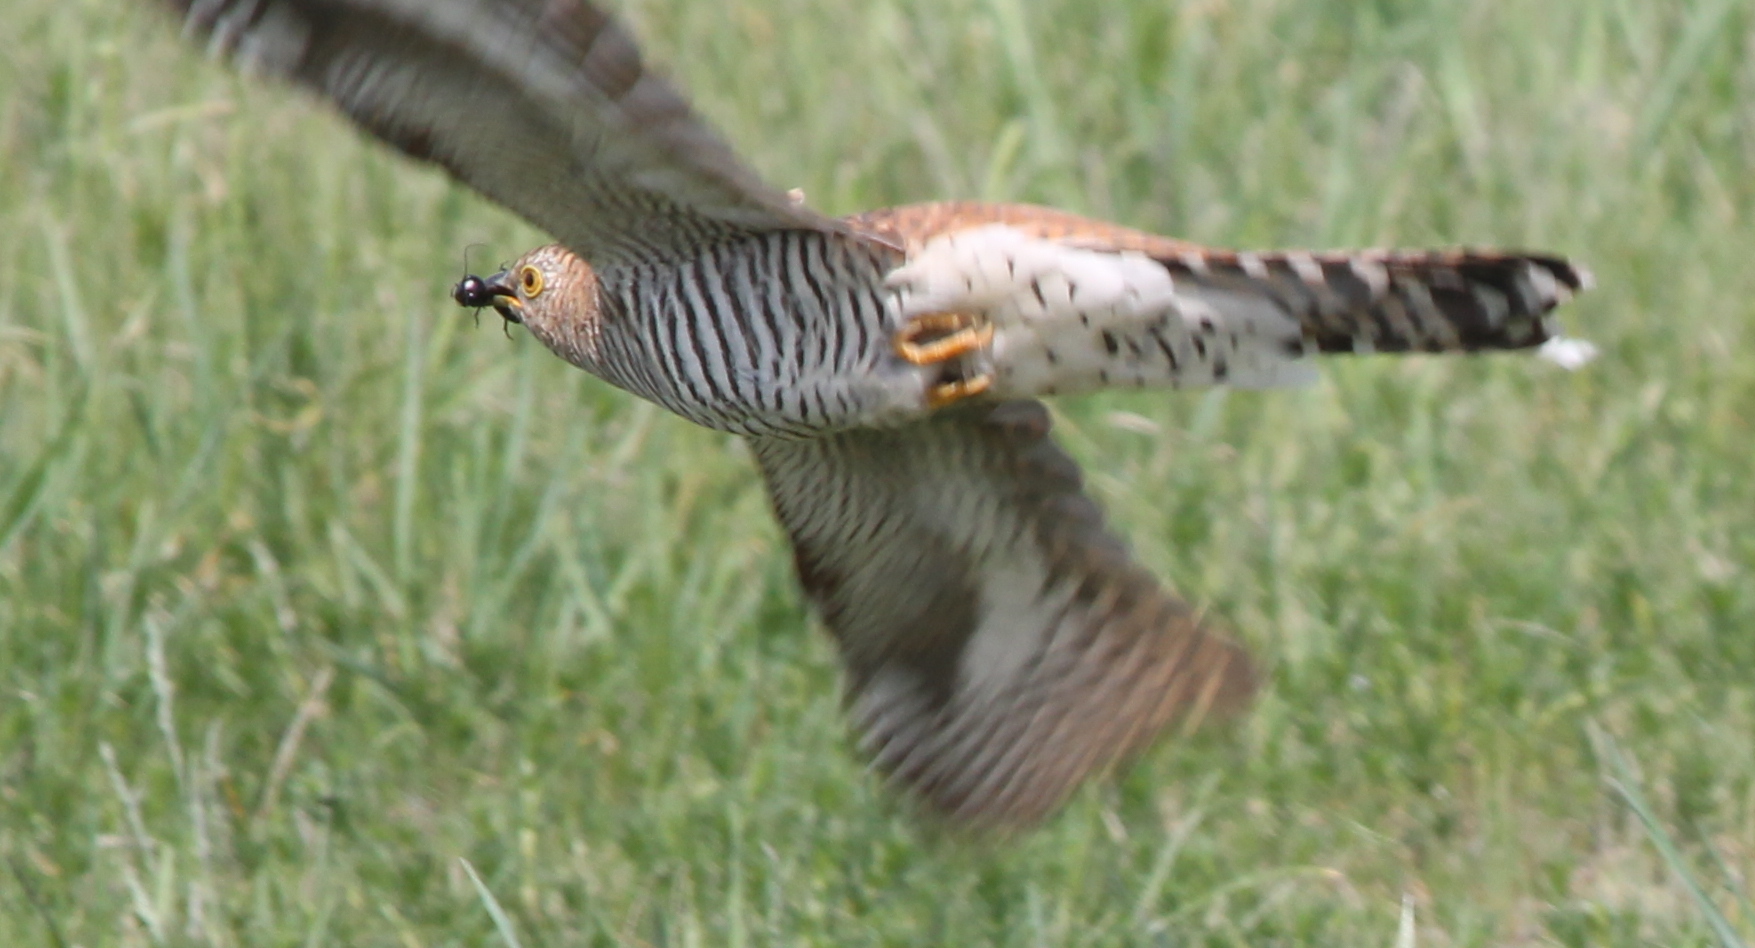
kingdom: Animalia
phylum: Chordata
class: Aves
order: Cuculiformes
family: Cuculidae
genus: Cuculus
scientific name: Cuculus canorus
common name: Common cuckoo
